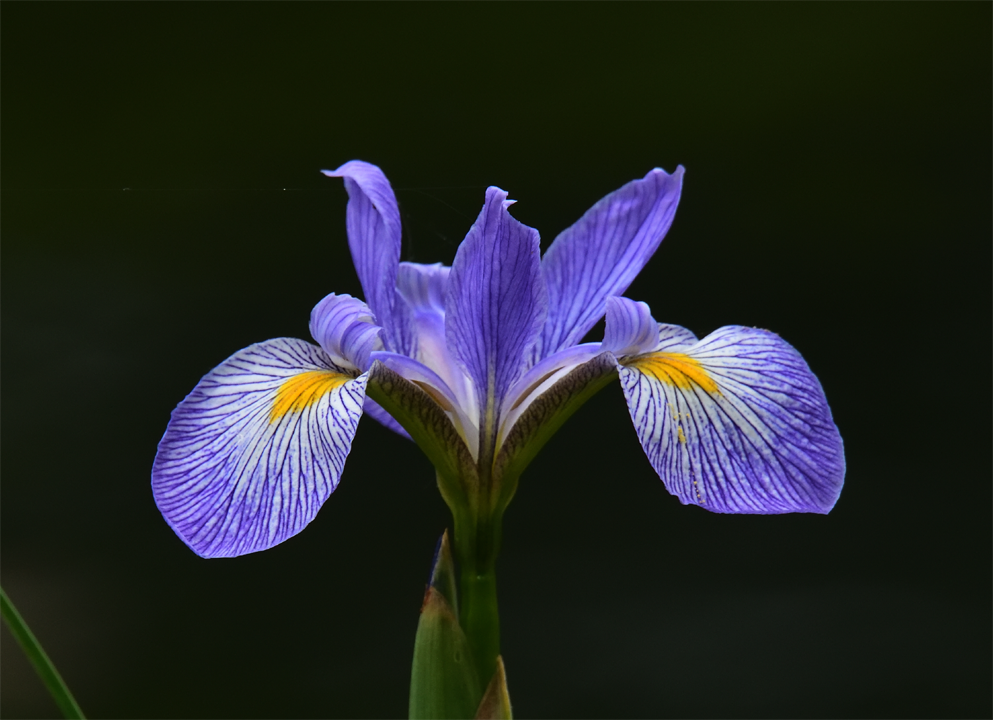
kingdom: Plantae
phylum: Tracheophyta
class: Liliopsida
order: Asparagales
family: Iridaceae
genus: Iris
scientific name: Iris virginica
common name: Southern blue flag
